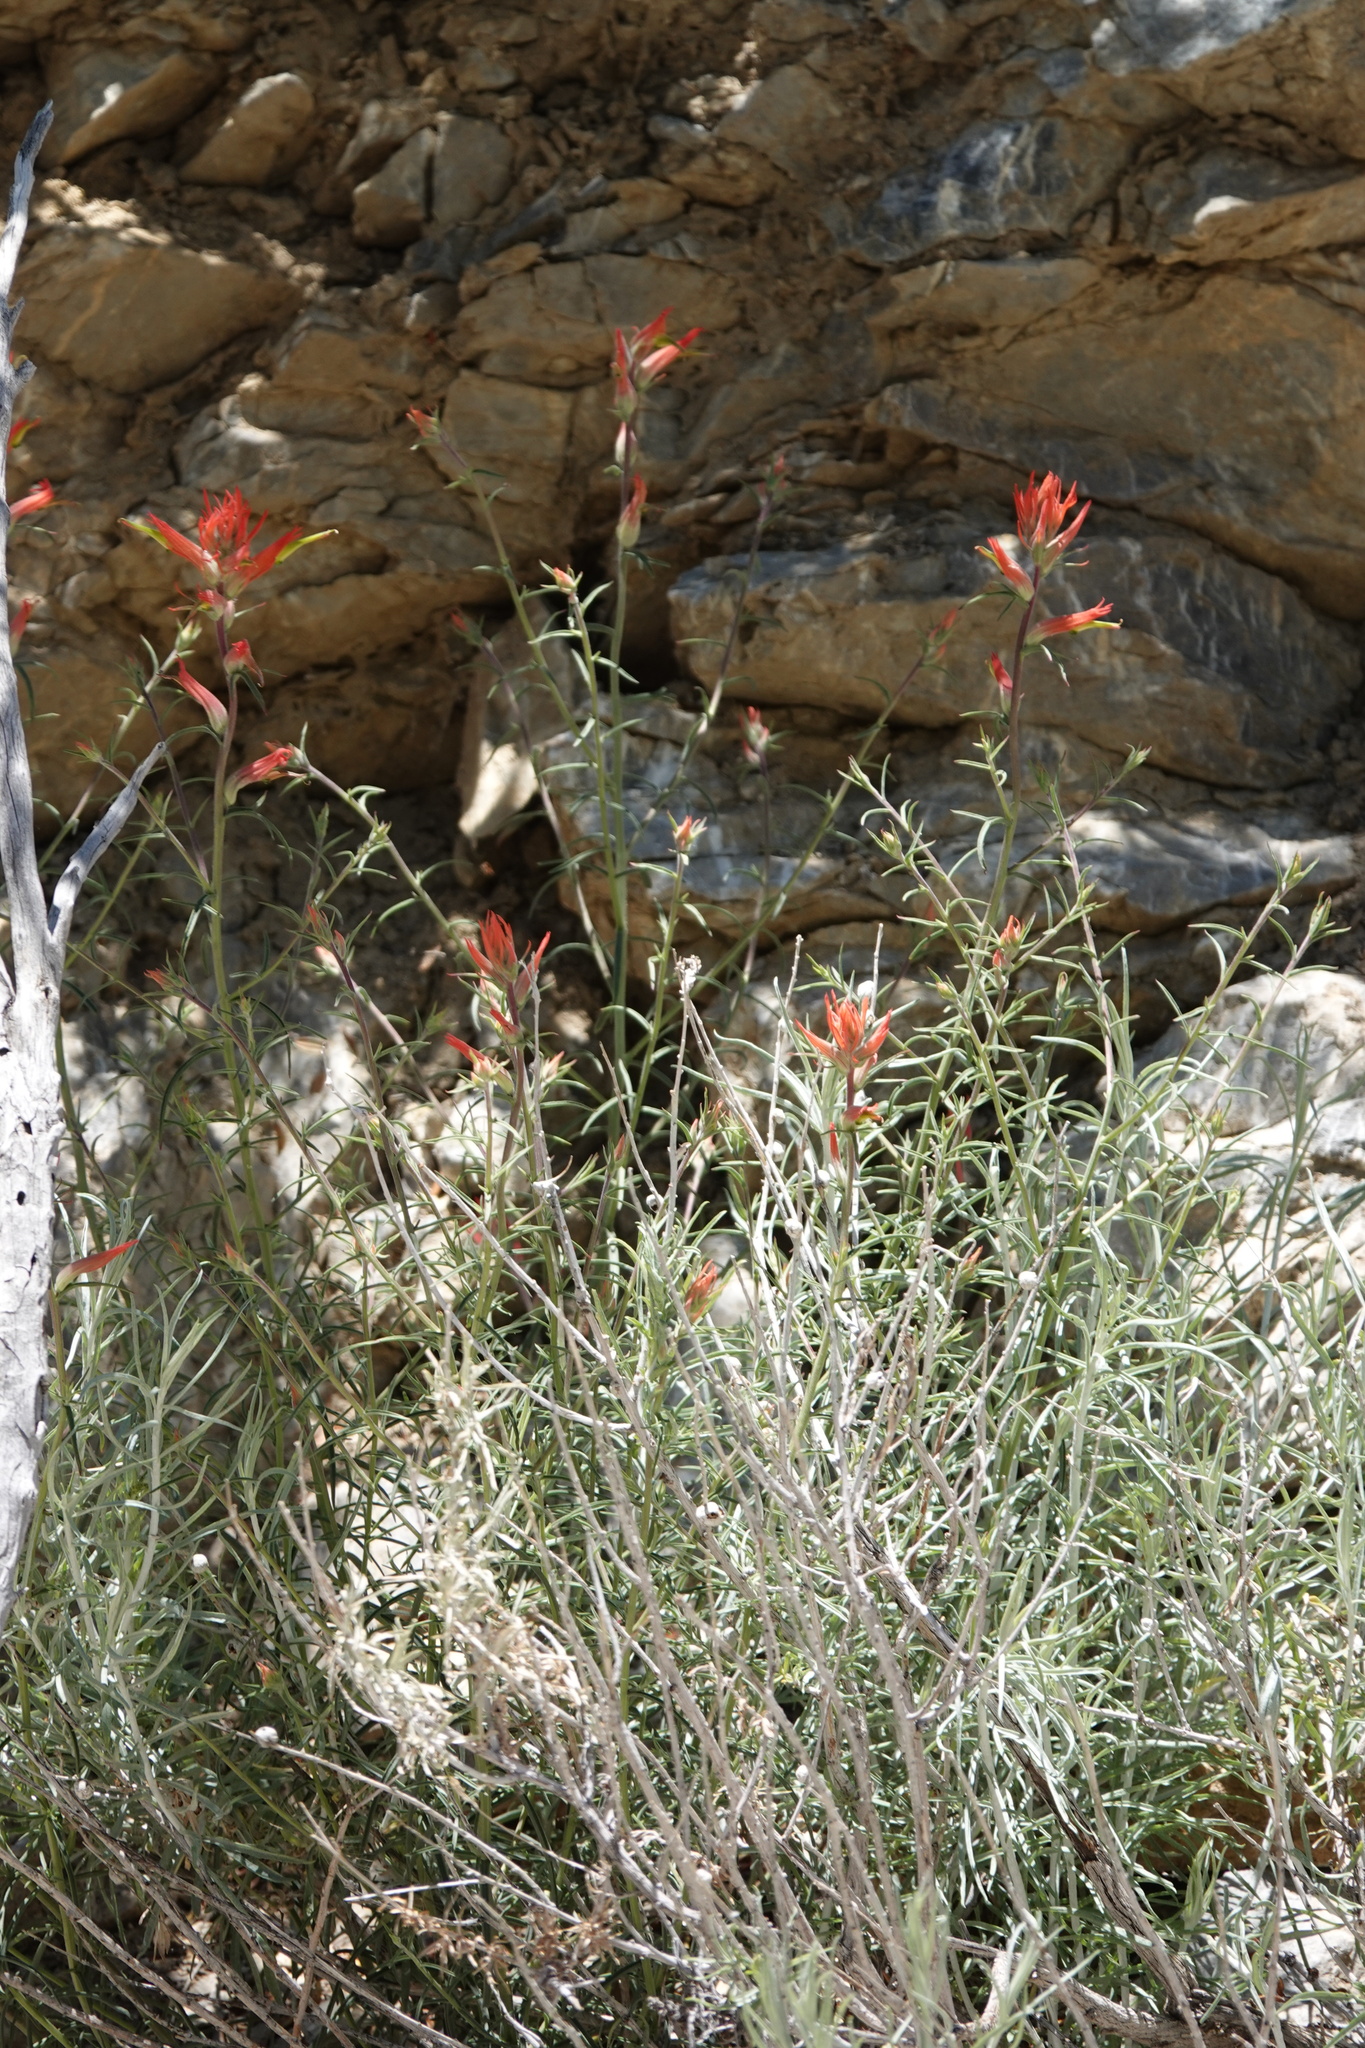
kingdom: Plantae
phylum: Tracheophyta
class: Magnoliopsida
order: Lamiales
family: Orobanchaceae
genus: Castilleja
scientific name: Castilleja linariifolia
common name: Wyoming paintbrush
